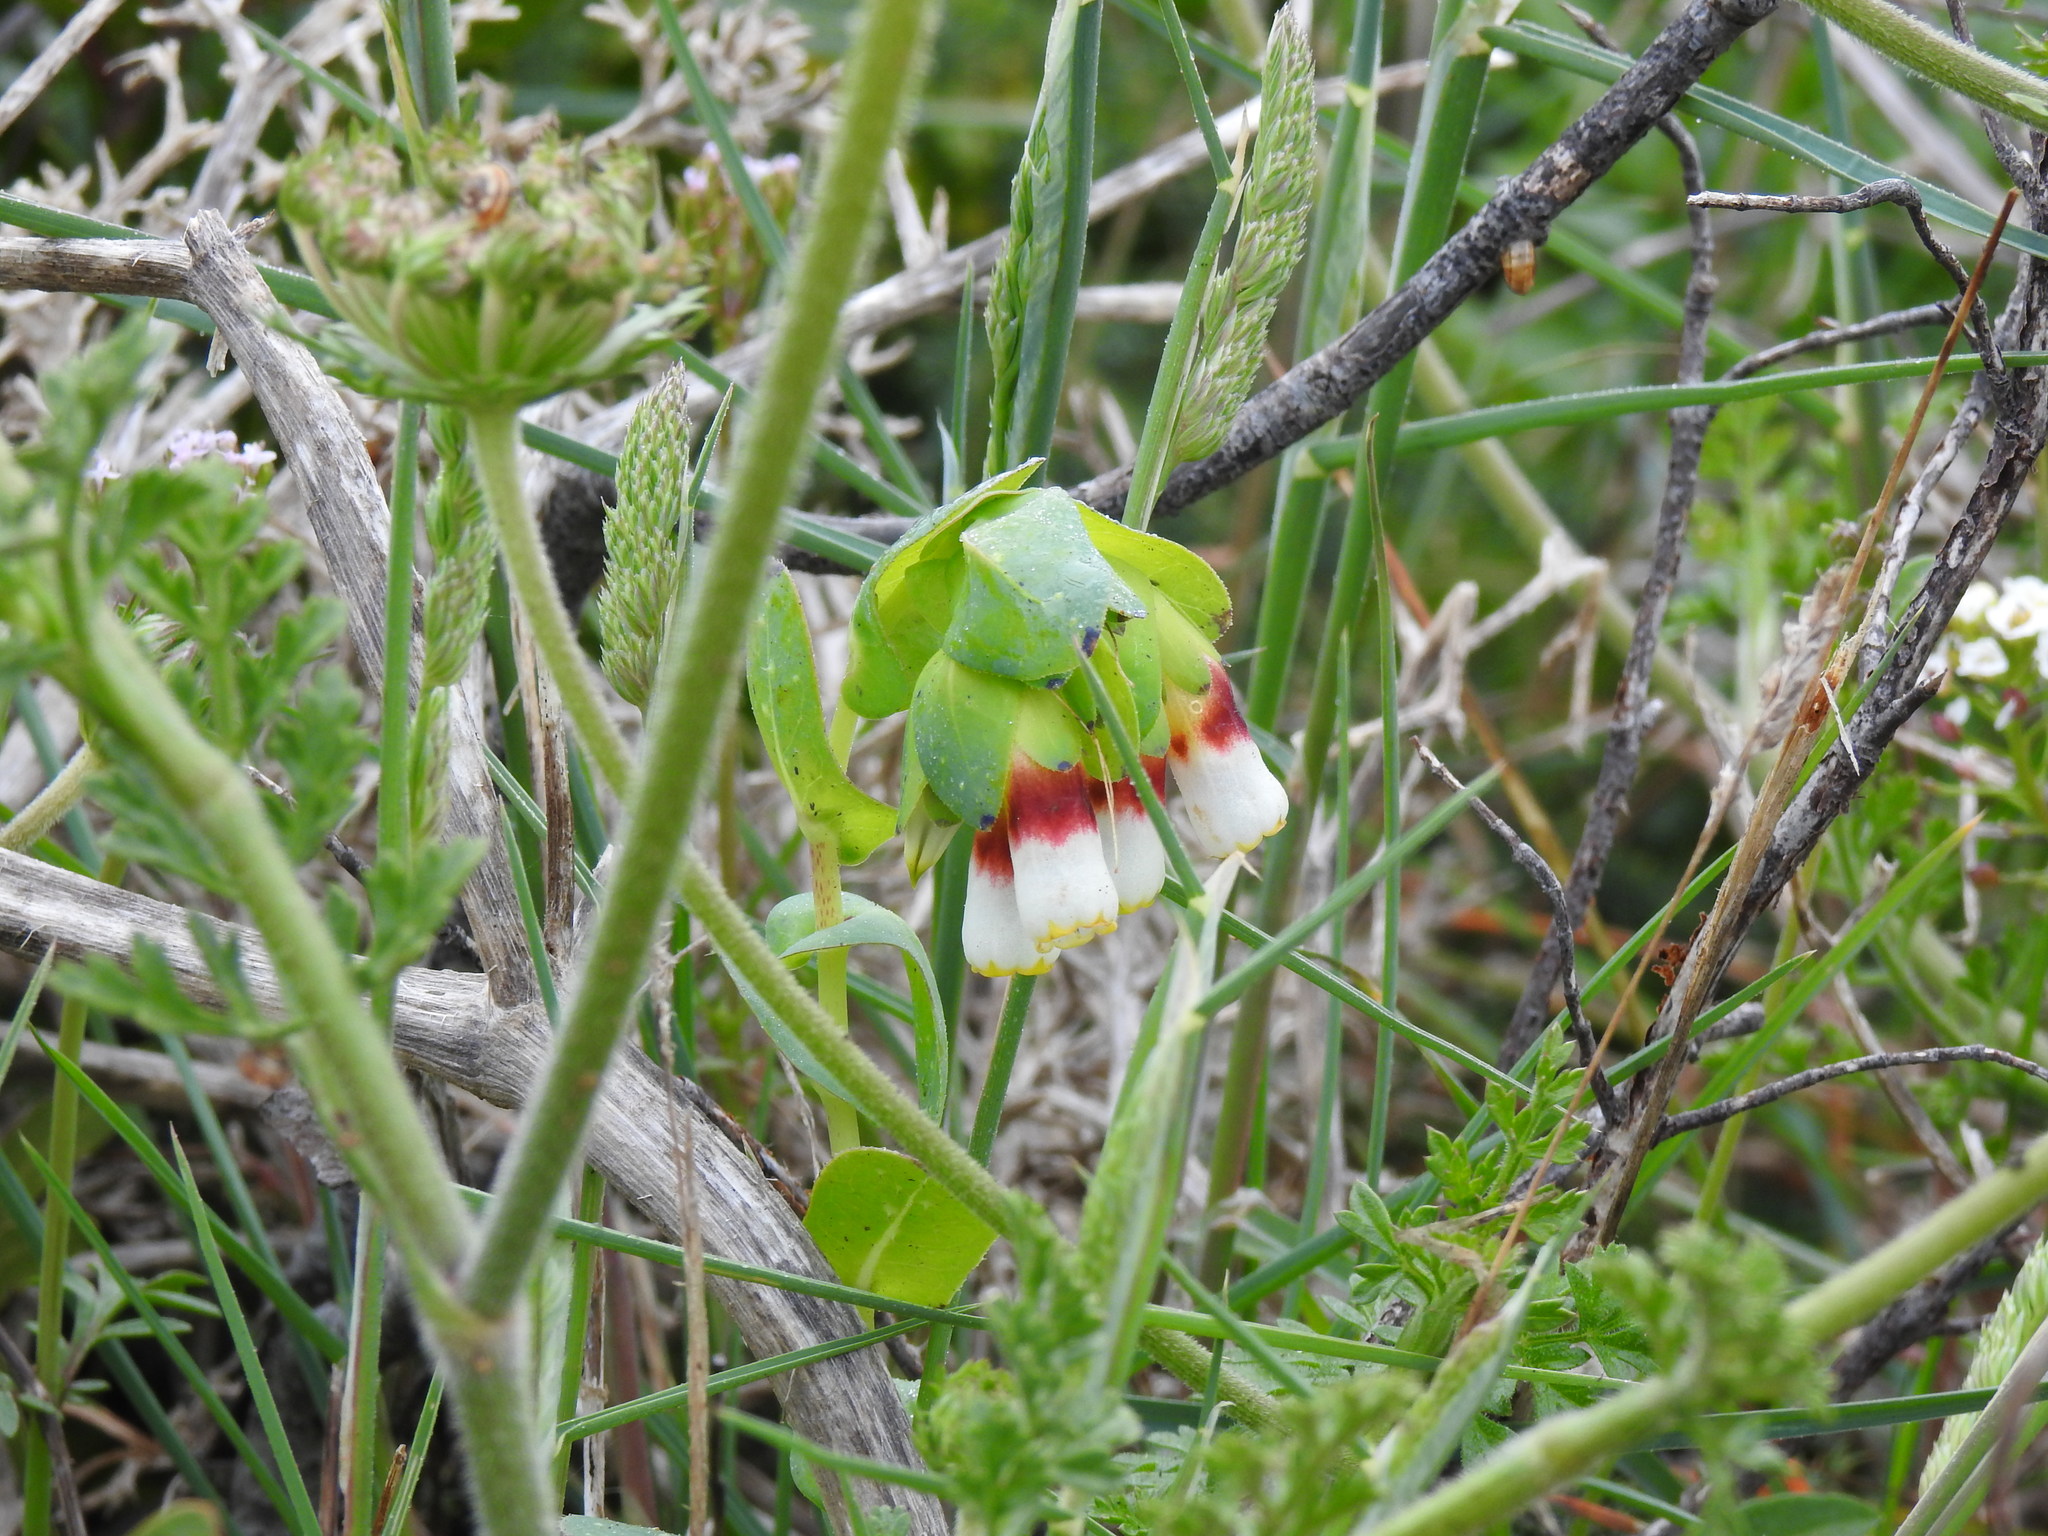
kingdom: Plantae
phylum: Tracheophyta
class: Magnoliopsida
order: Boraginales
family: Boraginaceae
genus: Cerinthe
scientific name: Cerinthe major
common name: Greater honeywort
